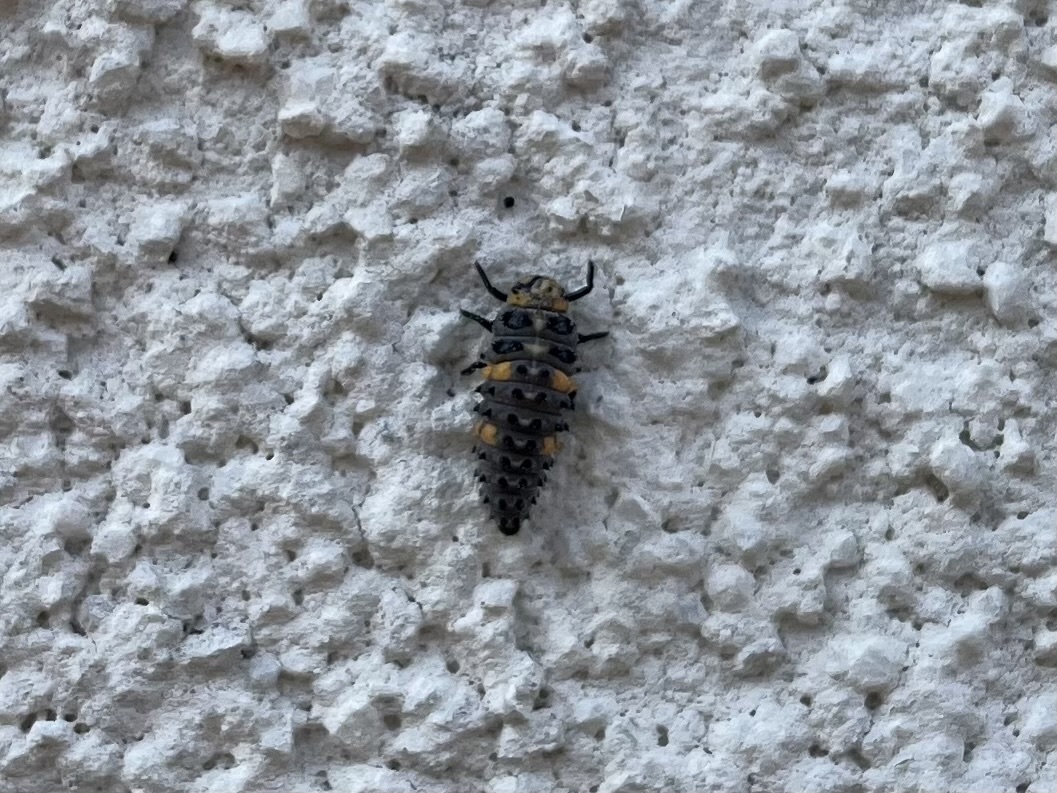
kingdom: Animalia
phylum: Arthropoda
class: Insecta
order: Coleoptera
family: Coccinellidae
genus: Coccinella
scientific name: Coccinella septempunctata
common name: Sevenspotted lady beetle
